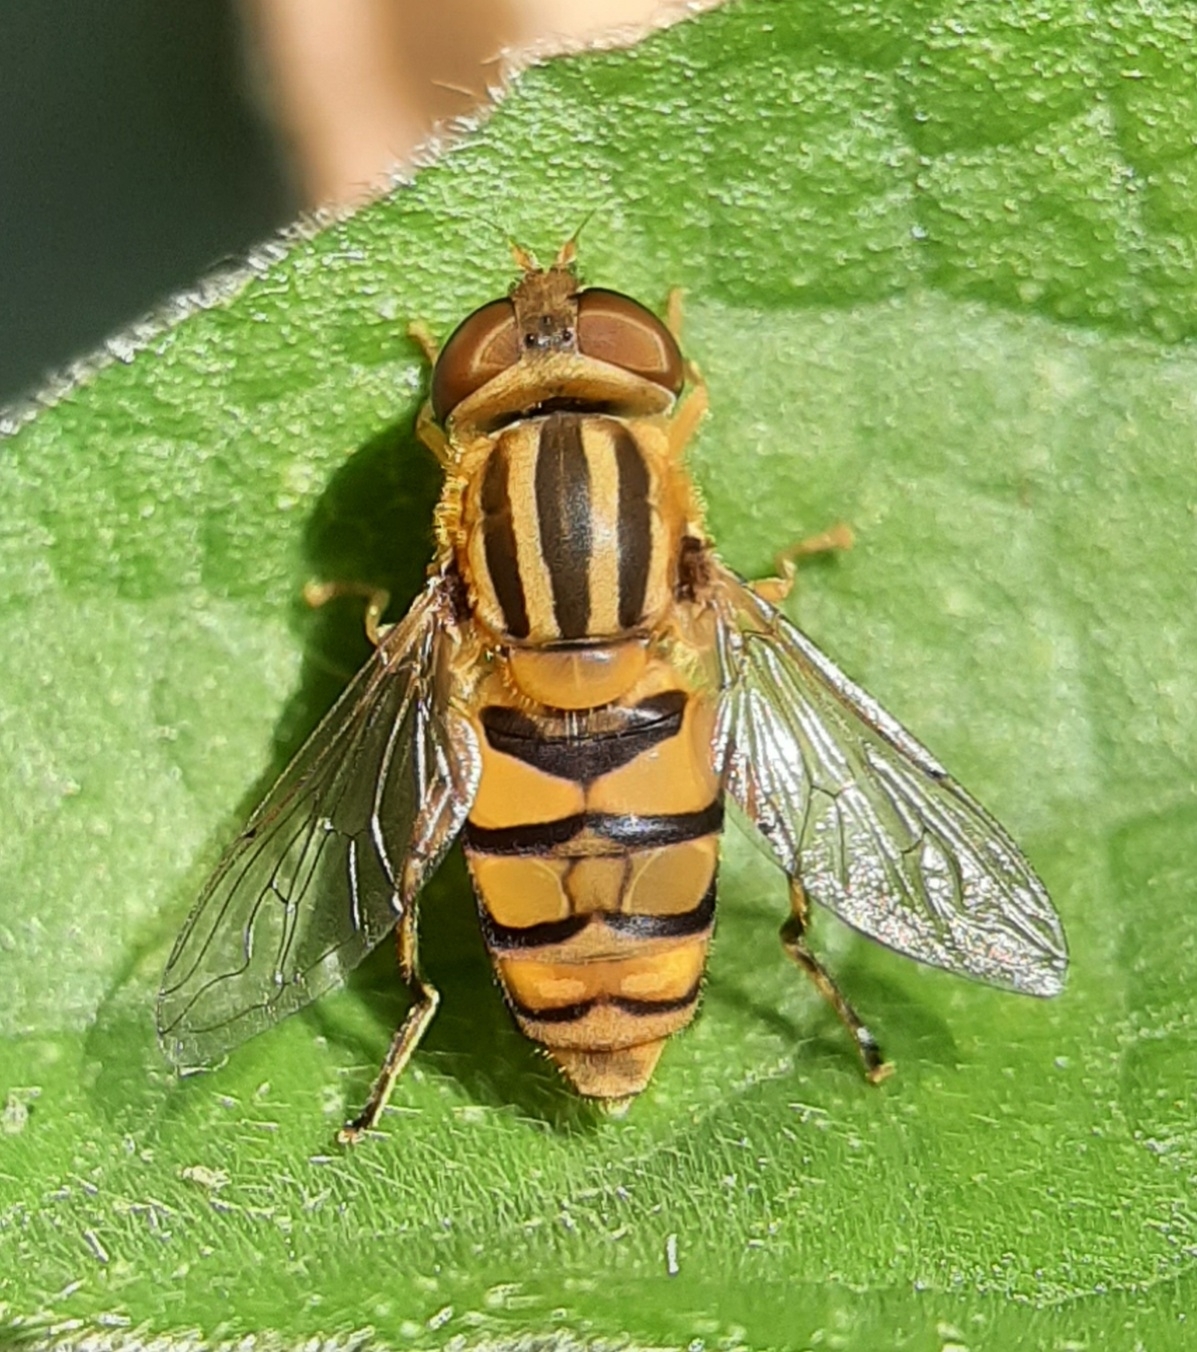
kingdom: Animalia
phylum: Arthropoda
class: Insecta
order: Diptera
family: Syrphidae
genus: Parhelophilus
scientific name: Parhelophilus integer
